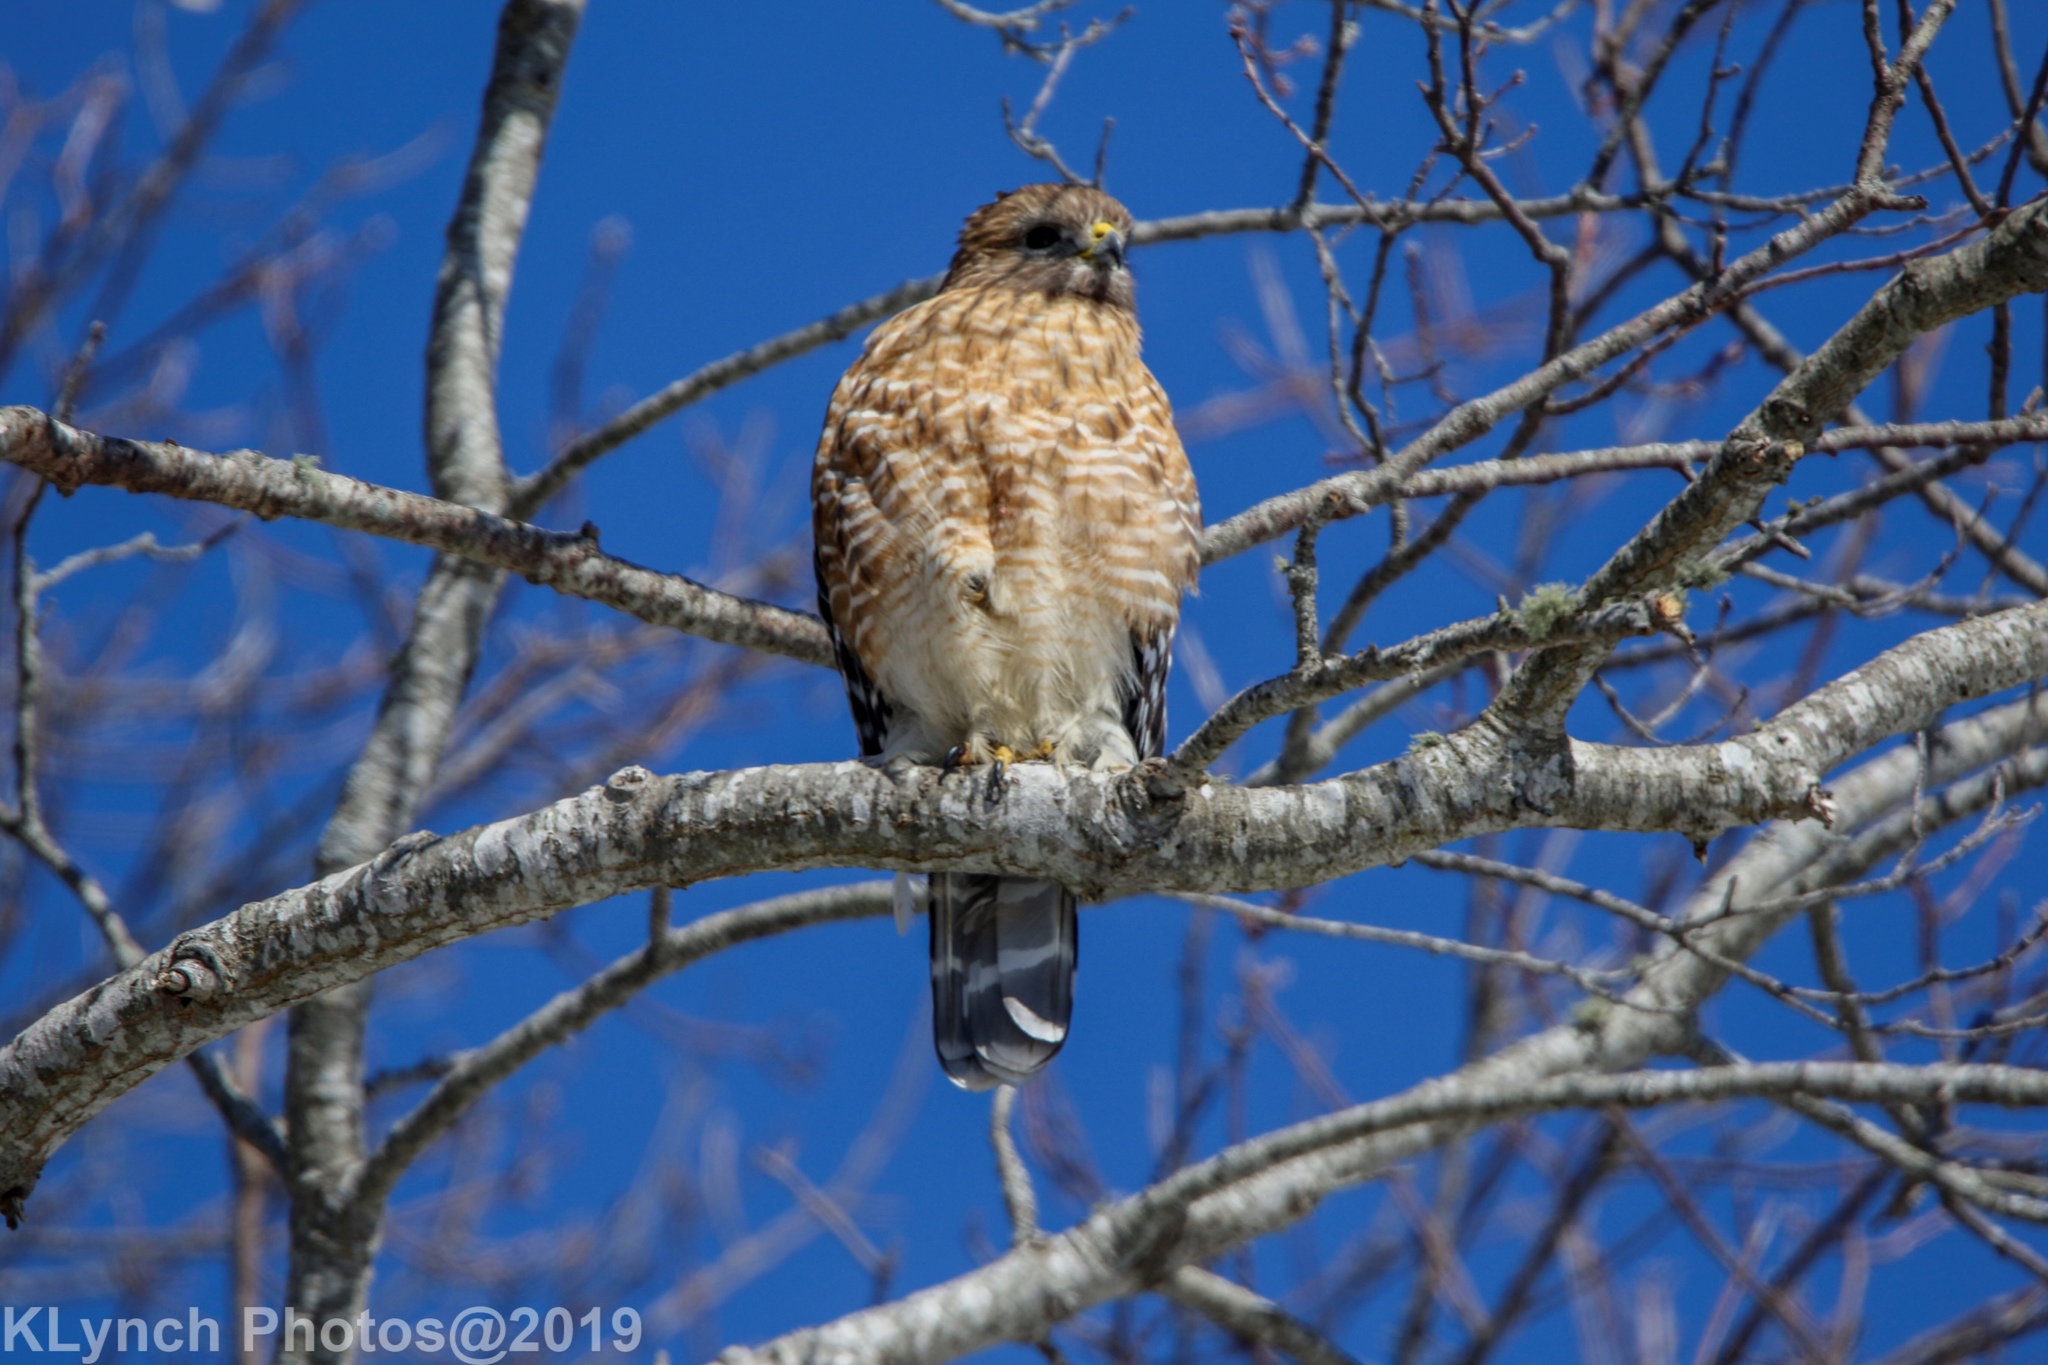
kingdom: Animalia
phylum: Chordata
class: Aves
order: Accipitriformes
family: Accipitridae
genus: Buteo
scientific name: Buteo lineatus
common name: Red-shouldered hawk
